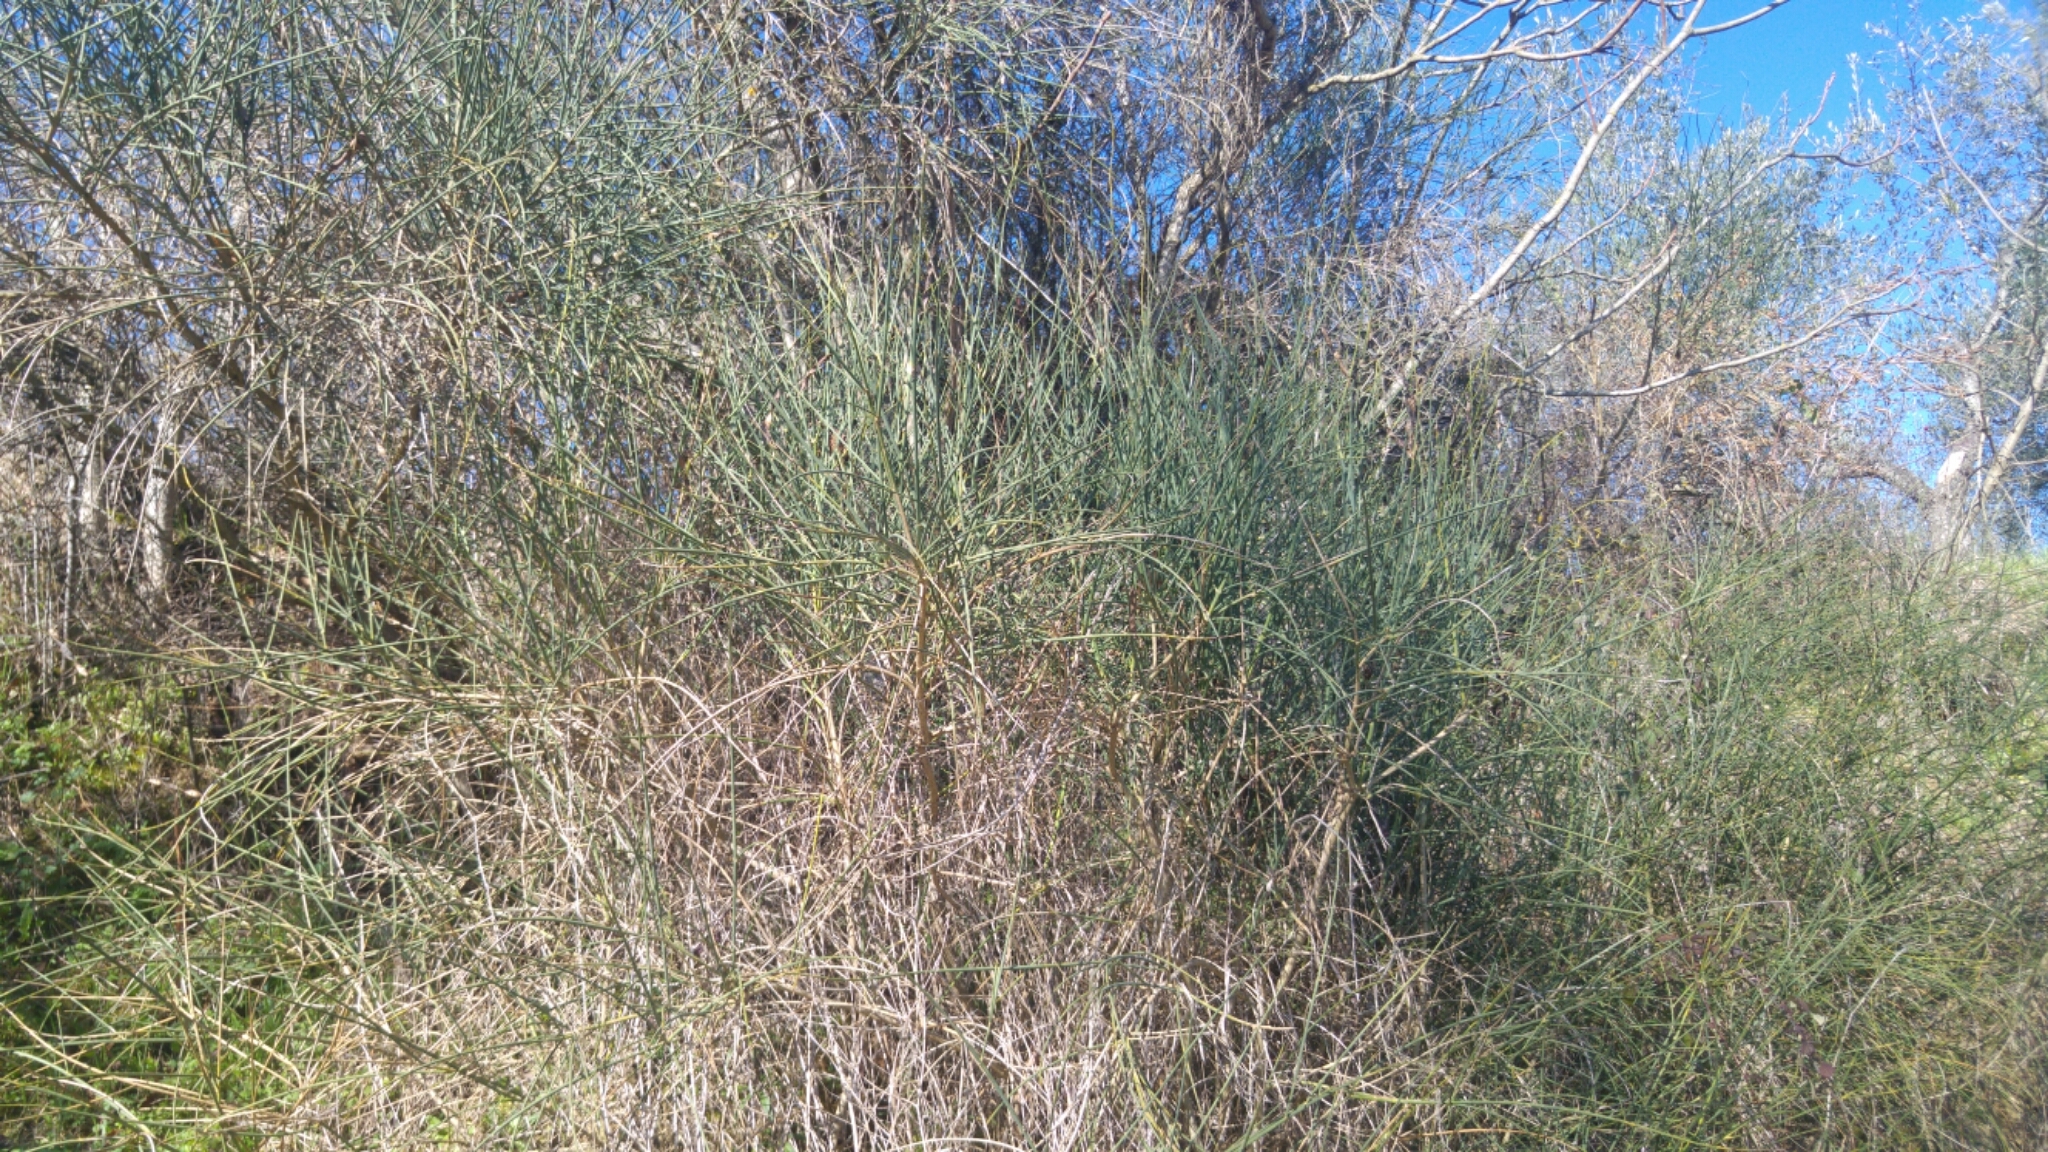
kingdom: Plantae
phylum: Tracheophyta
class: Magnoliopsida
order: Fabales
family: Fabaceae
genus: Spartium
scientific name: Spartium junceum
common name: Spanish broom
